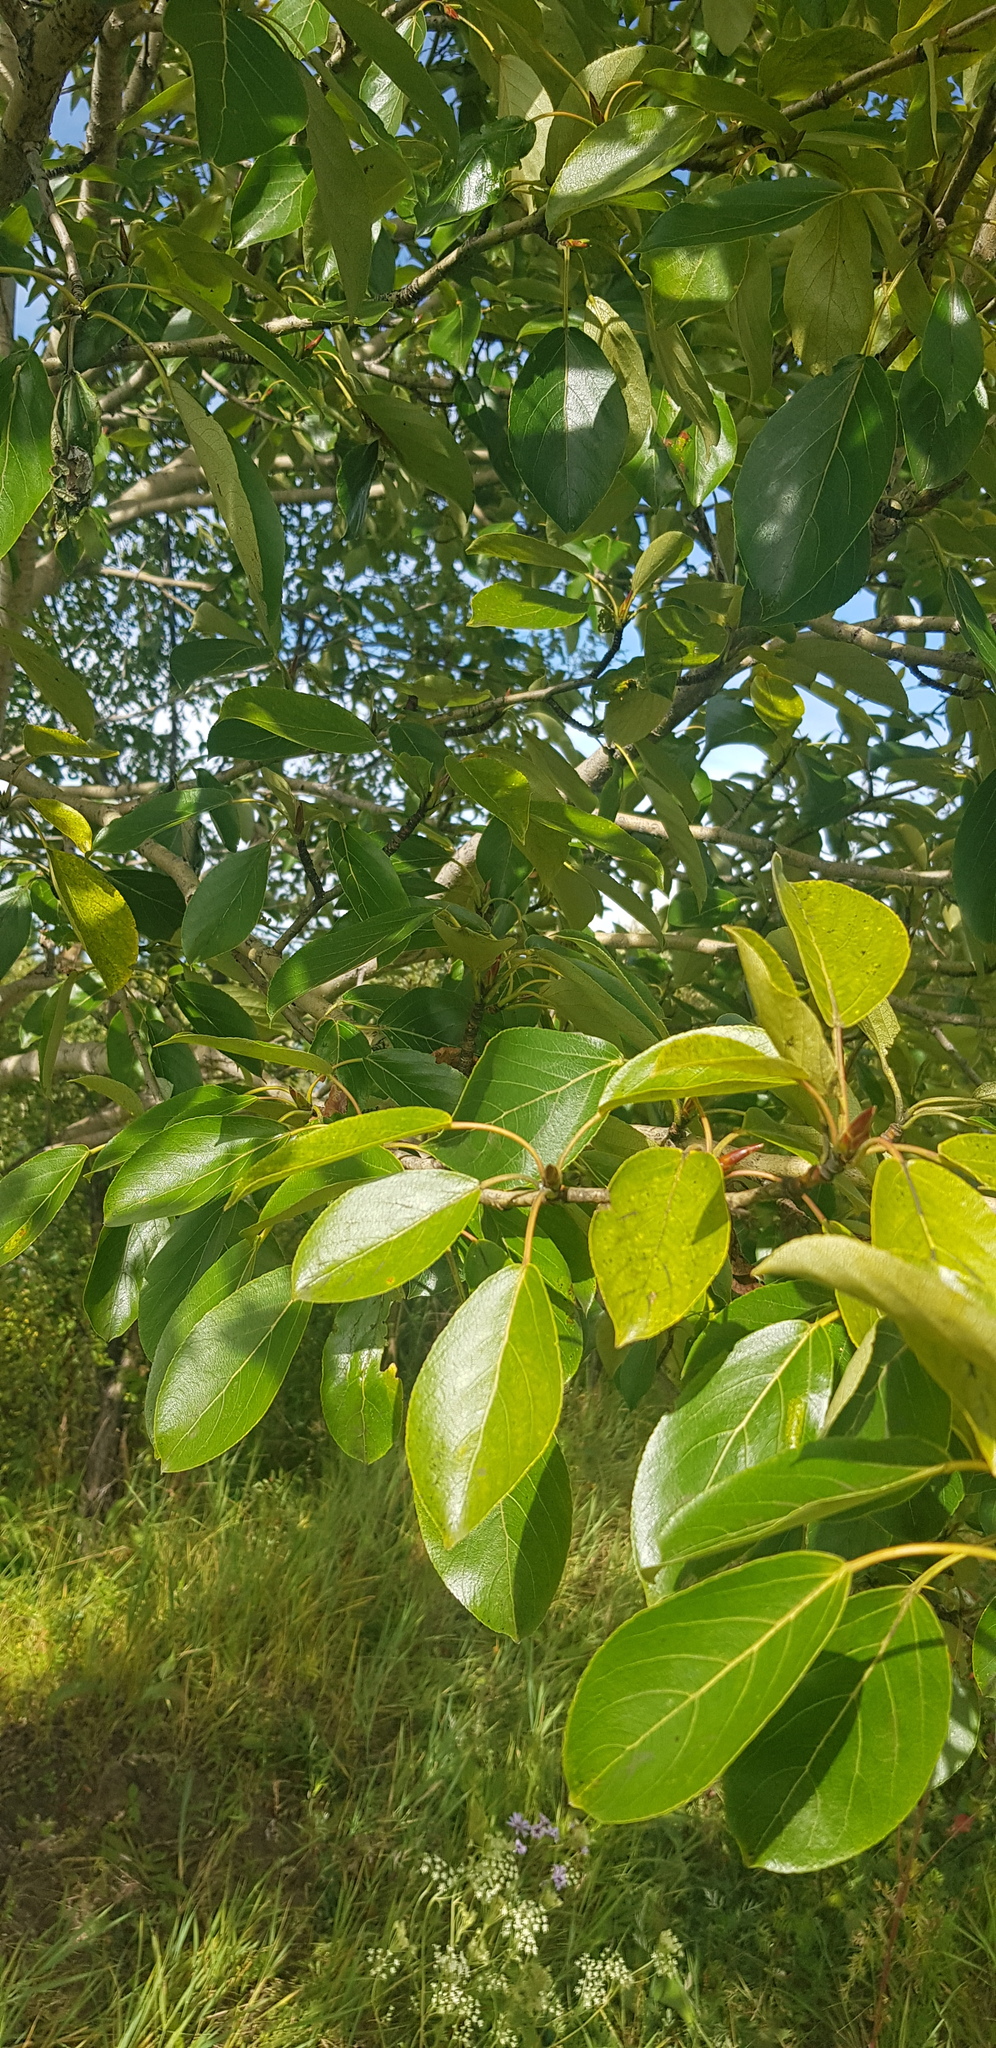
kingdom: Plantae
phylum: Tracheophyta
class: Magnoliopsida
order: Malpighiales
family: Salicaceae
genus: Populus
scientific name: Populus suaveolens
